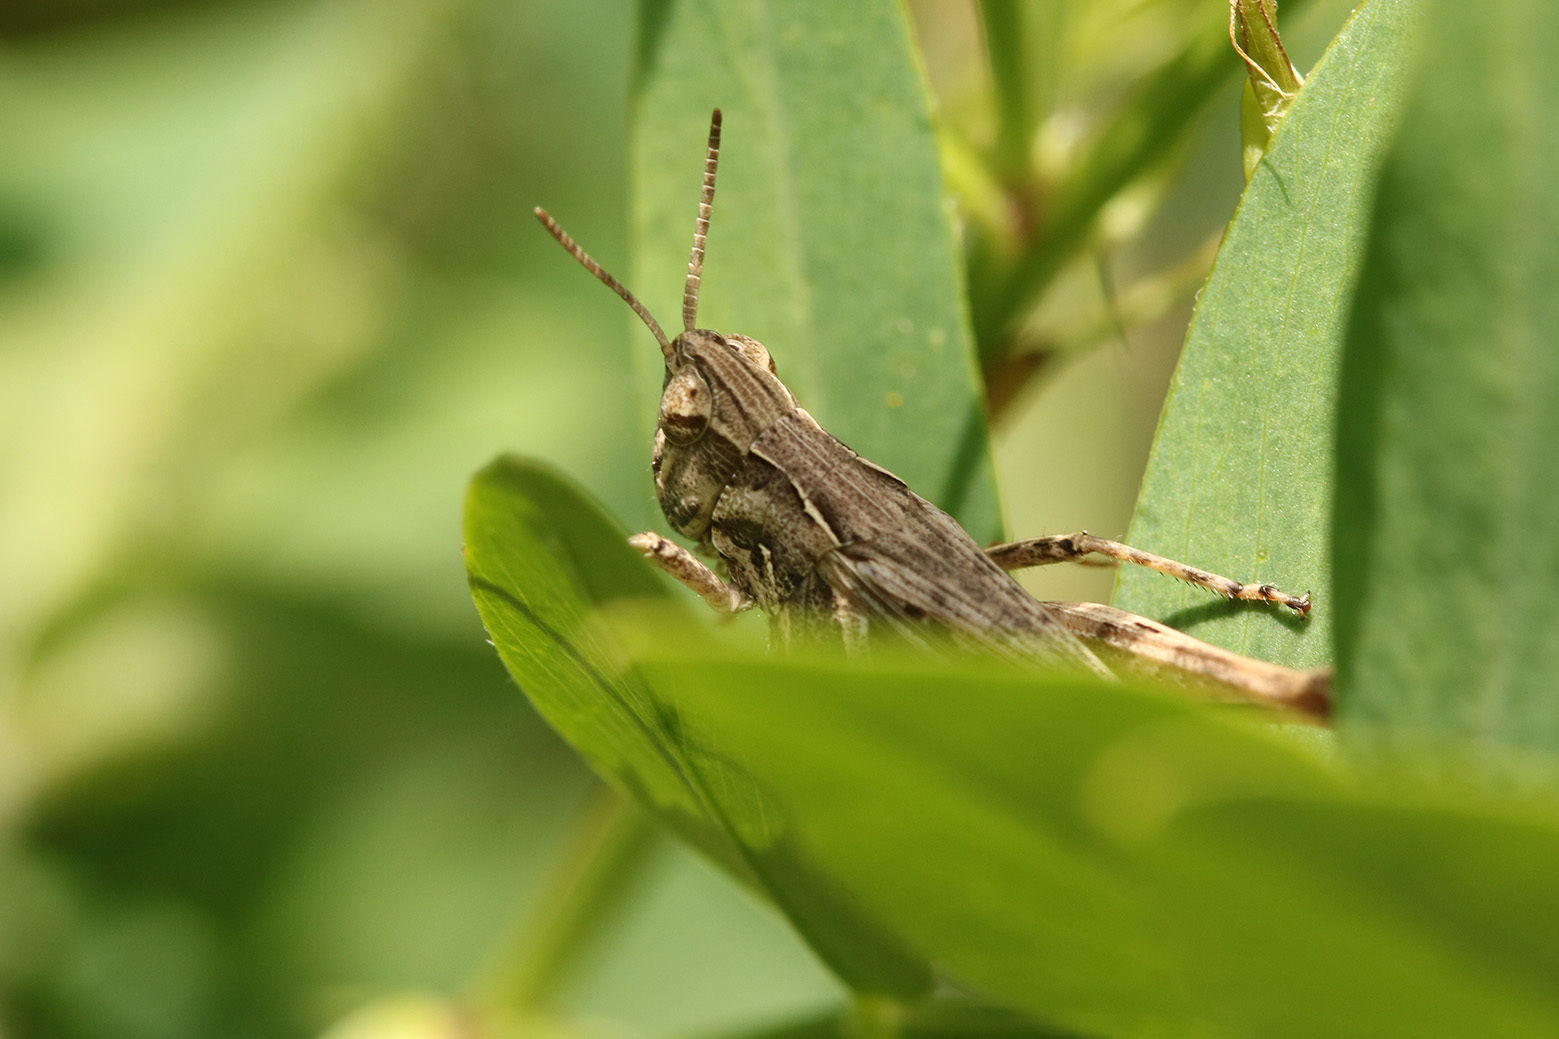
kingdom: Animalia
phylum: Arthropoda
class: Insecta
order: Orthoptera
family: Acrididae
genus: Orphulella
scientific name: Orphulella punctata
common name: Slant-faced grasshopper
